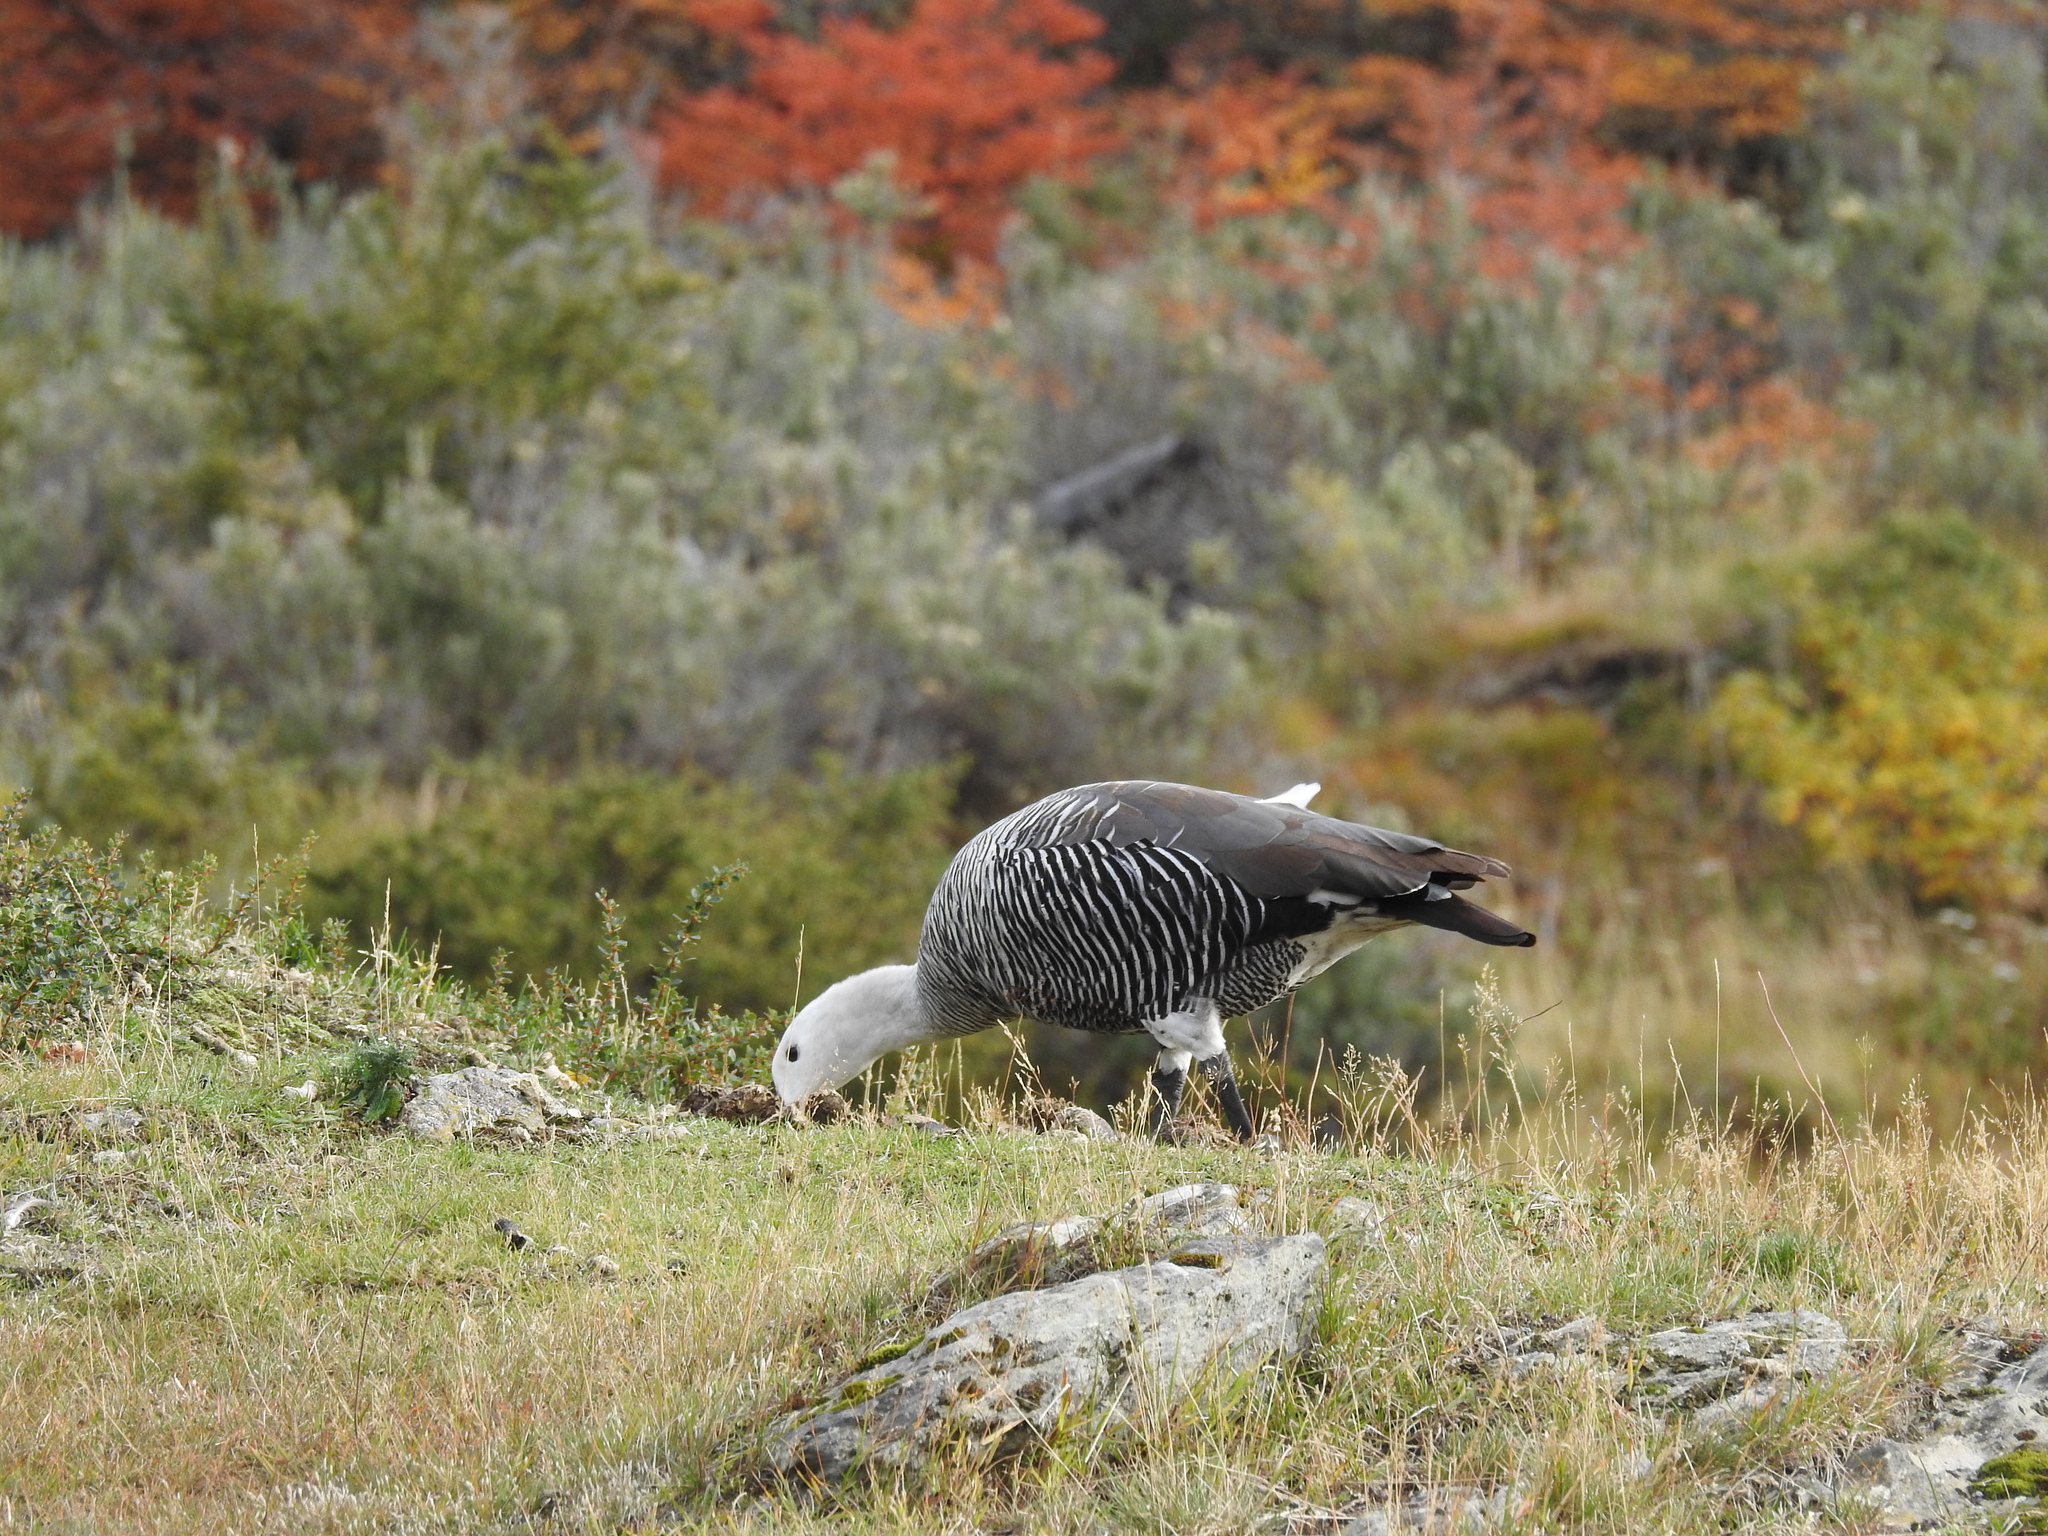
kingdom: Animalia
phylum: Chordata
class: Aves
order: Anseriformes
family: Anatidae
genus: Chloephaga
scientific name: Chloephaga picta
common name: Upland goose
